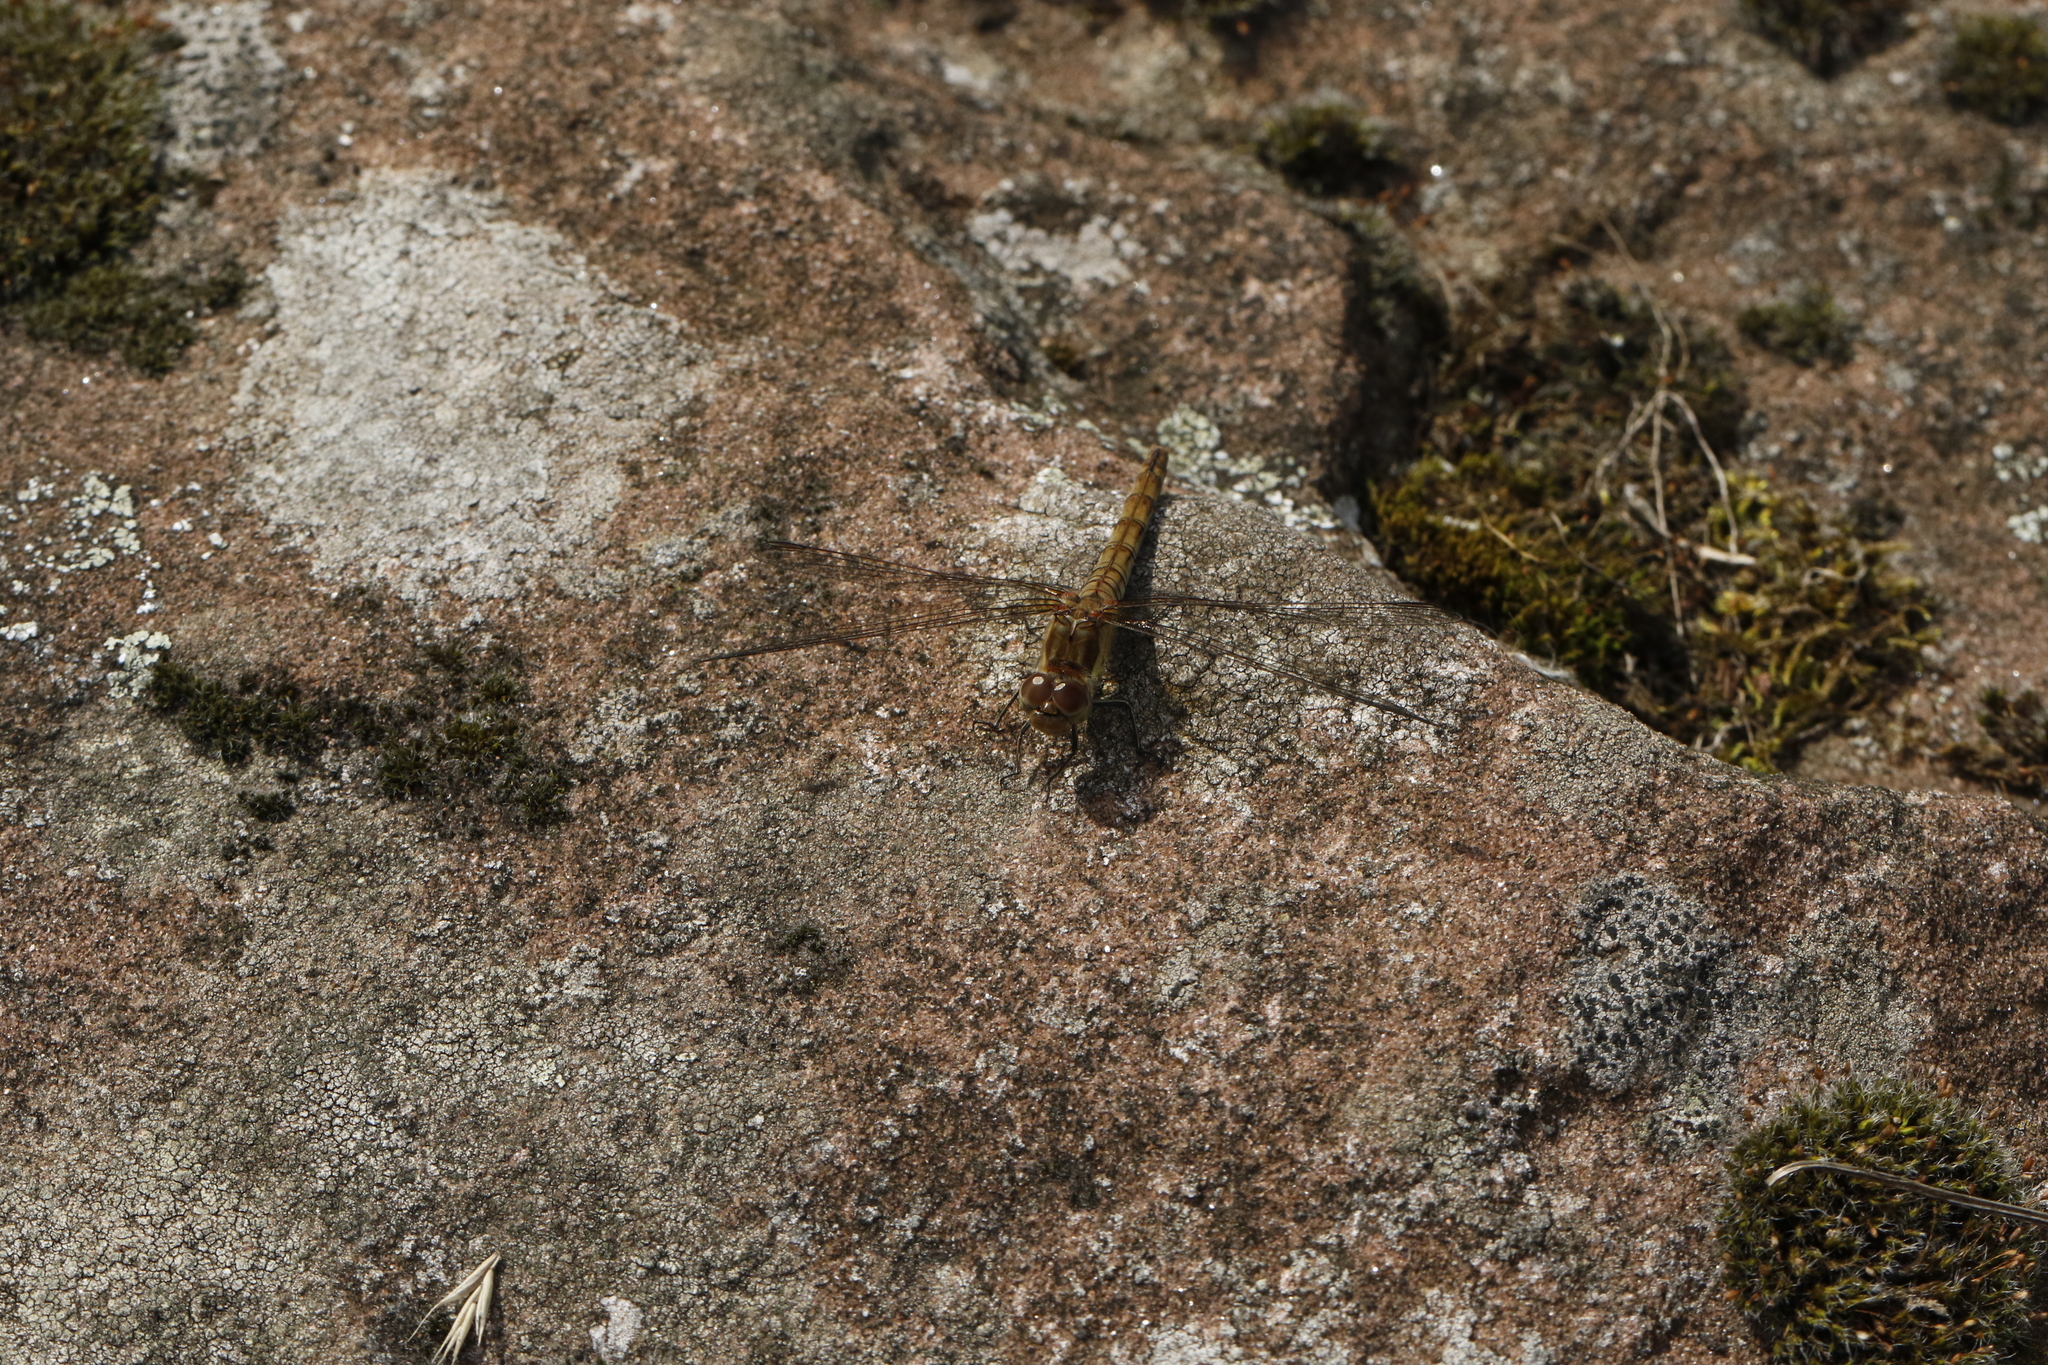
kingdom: Animalia
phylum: Arthropoda
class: Insecta
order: Odonata
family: Libellulidae
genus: Sympetrum
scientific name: Sympetrum striolatum
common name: Common darter
